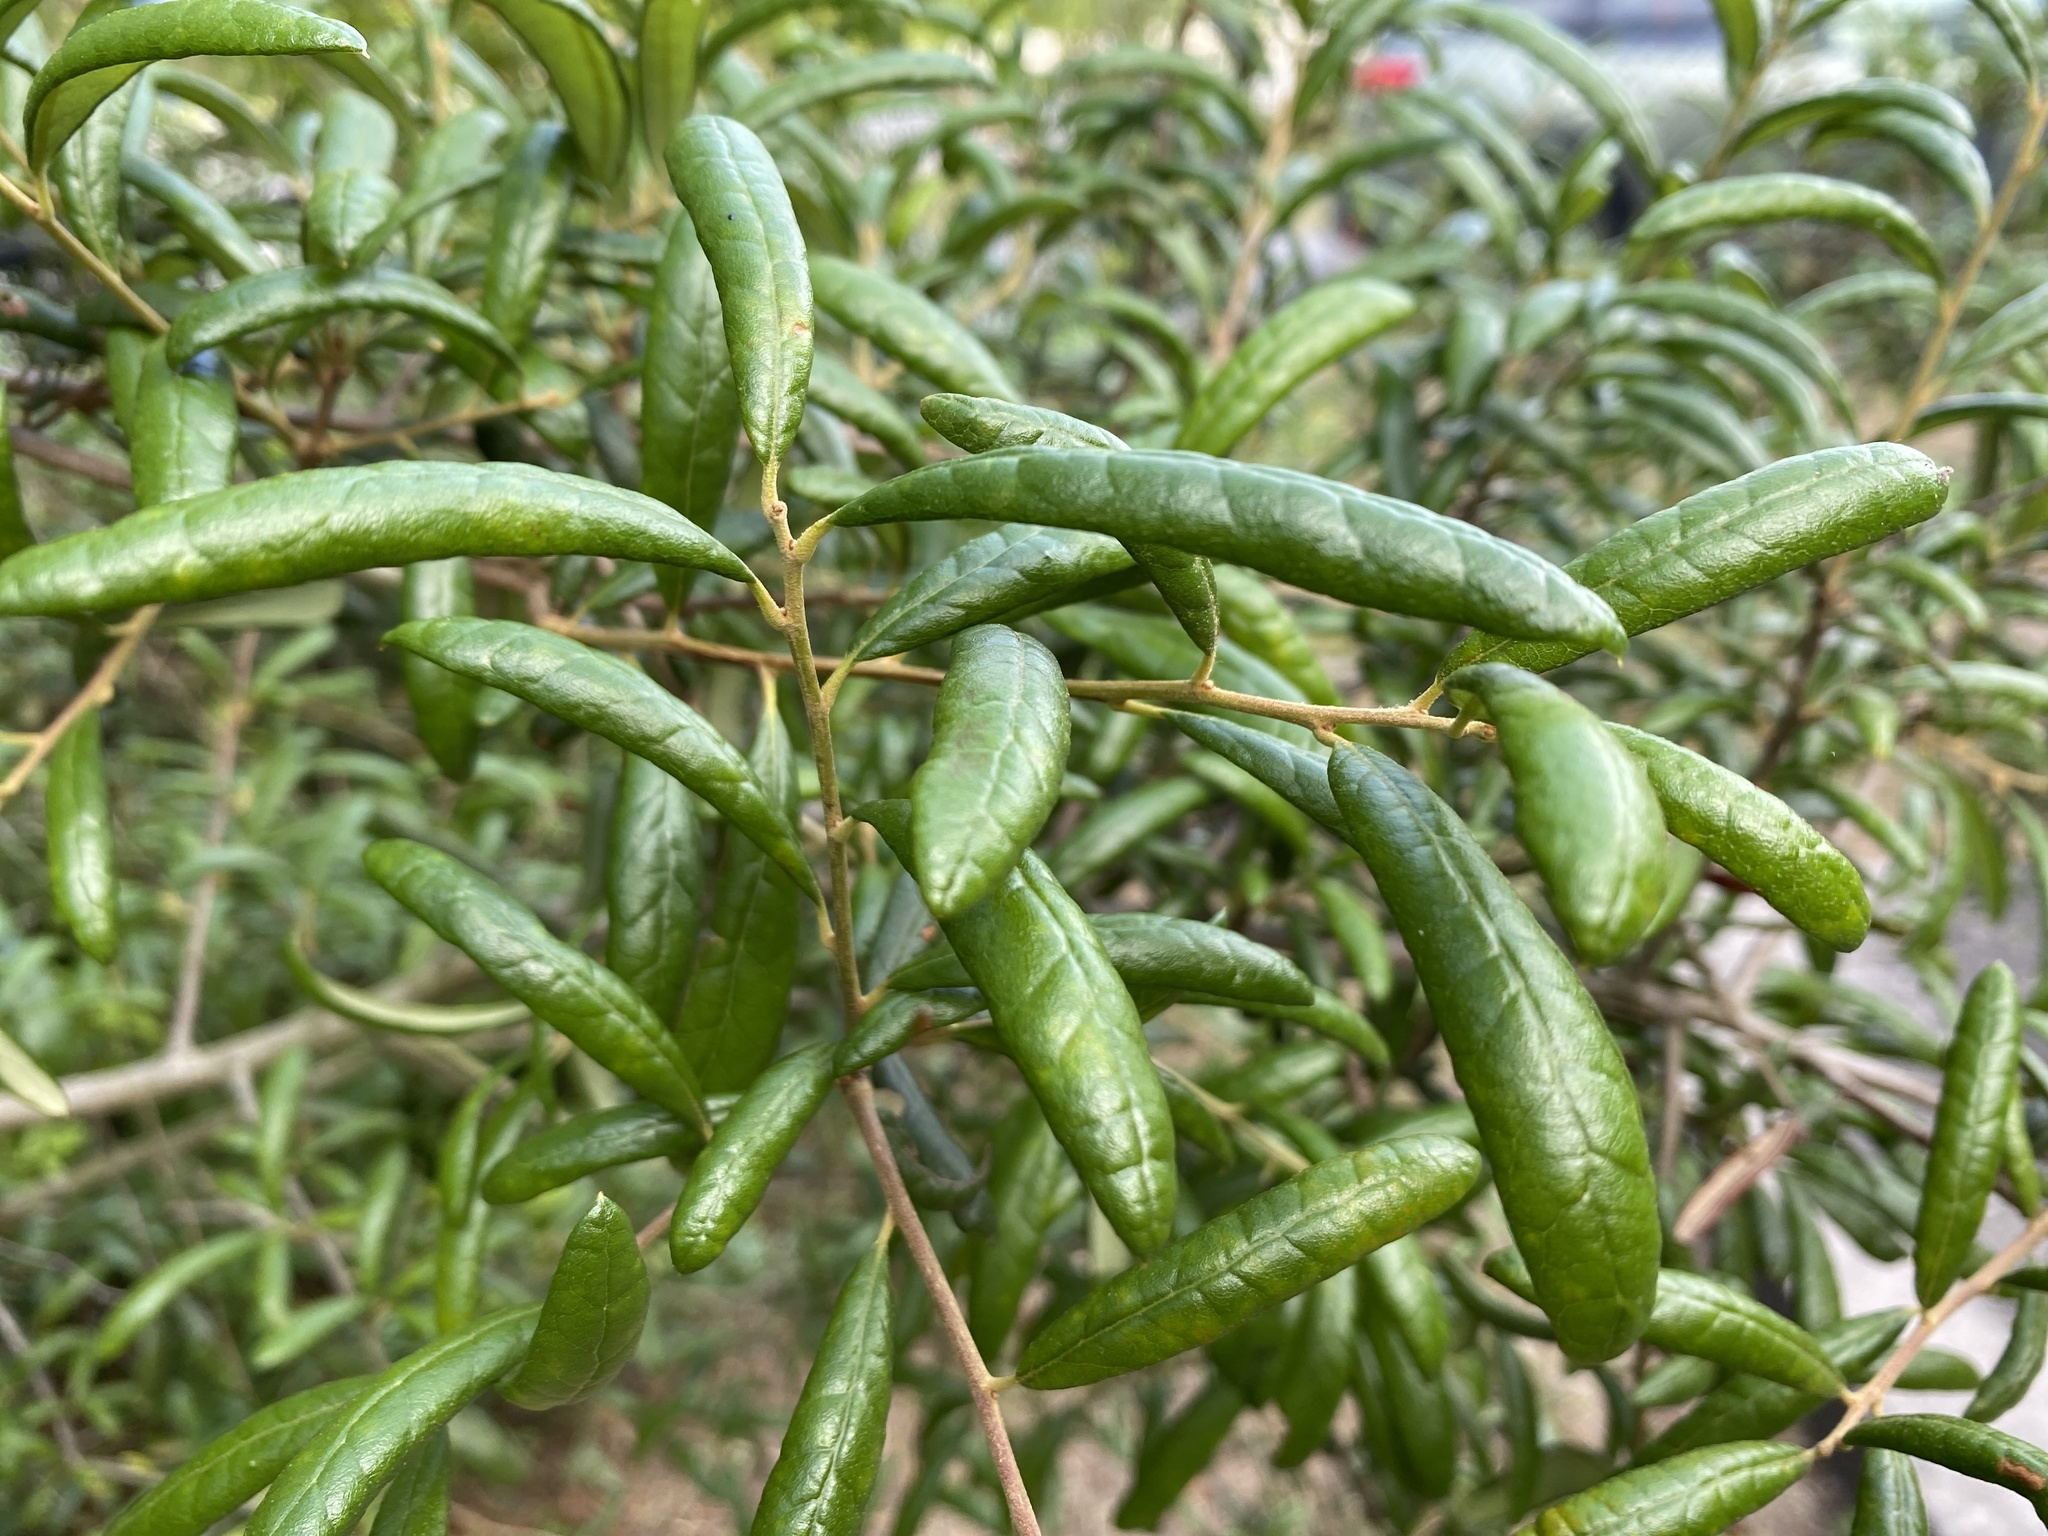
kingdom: Plantae
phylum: Tracheophyta
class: Magnoliopsida
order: Fagales
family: Fagaceae
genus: Quercus
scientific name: Quercus geminata
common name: Sand live oak
